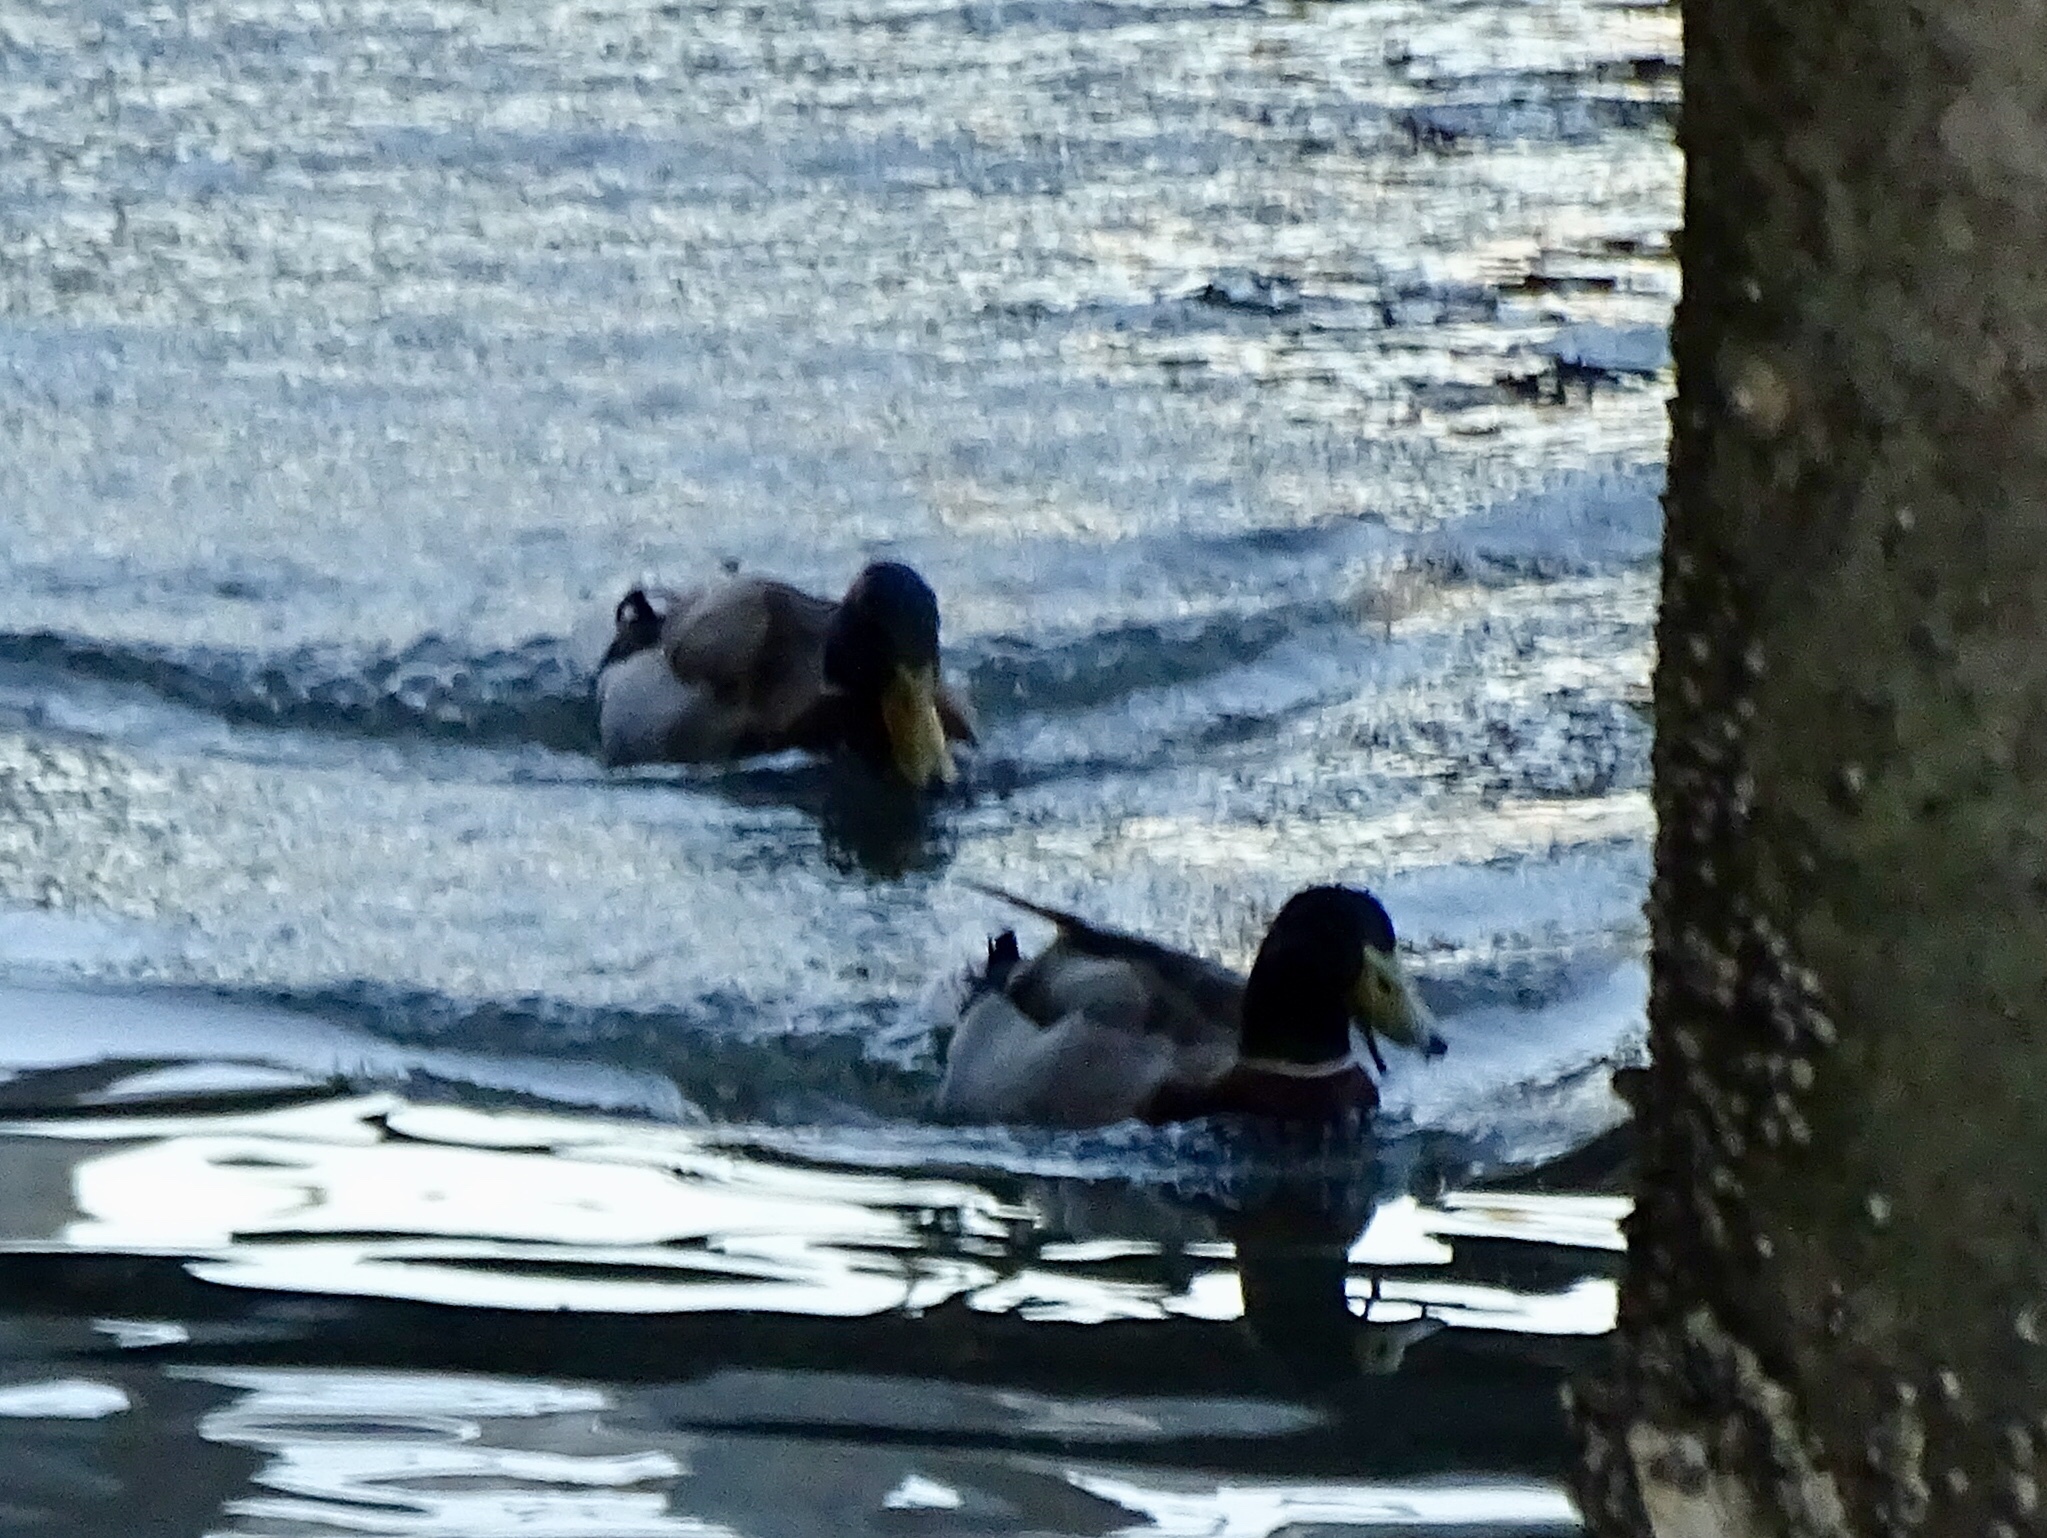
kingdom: Animalia
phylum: Chordata
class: Aves
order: Anseriformes
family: Anatidae
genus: Anas
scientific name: Anas platyrhynchos
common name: Mallard
